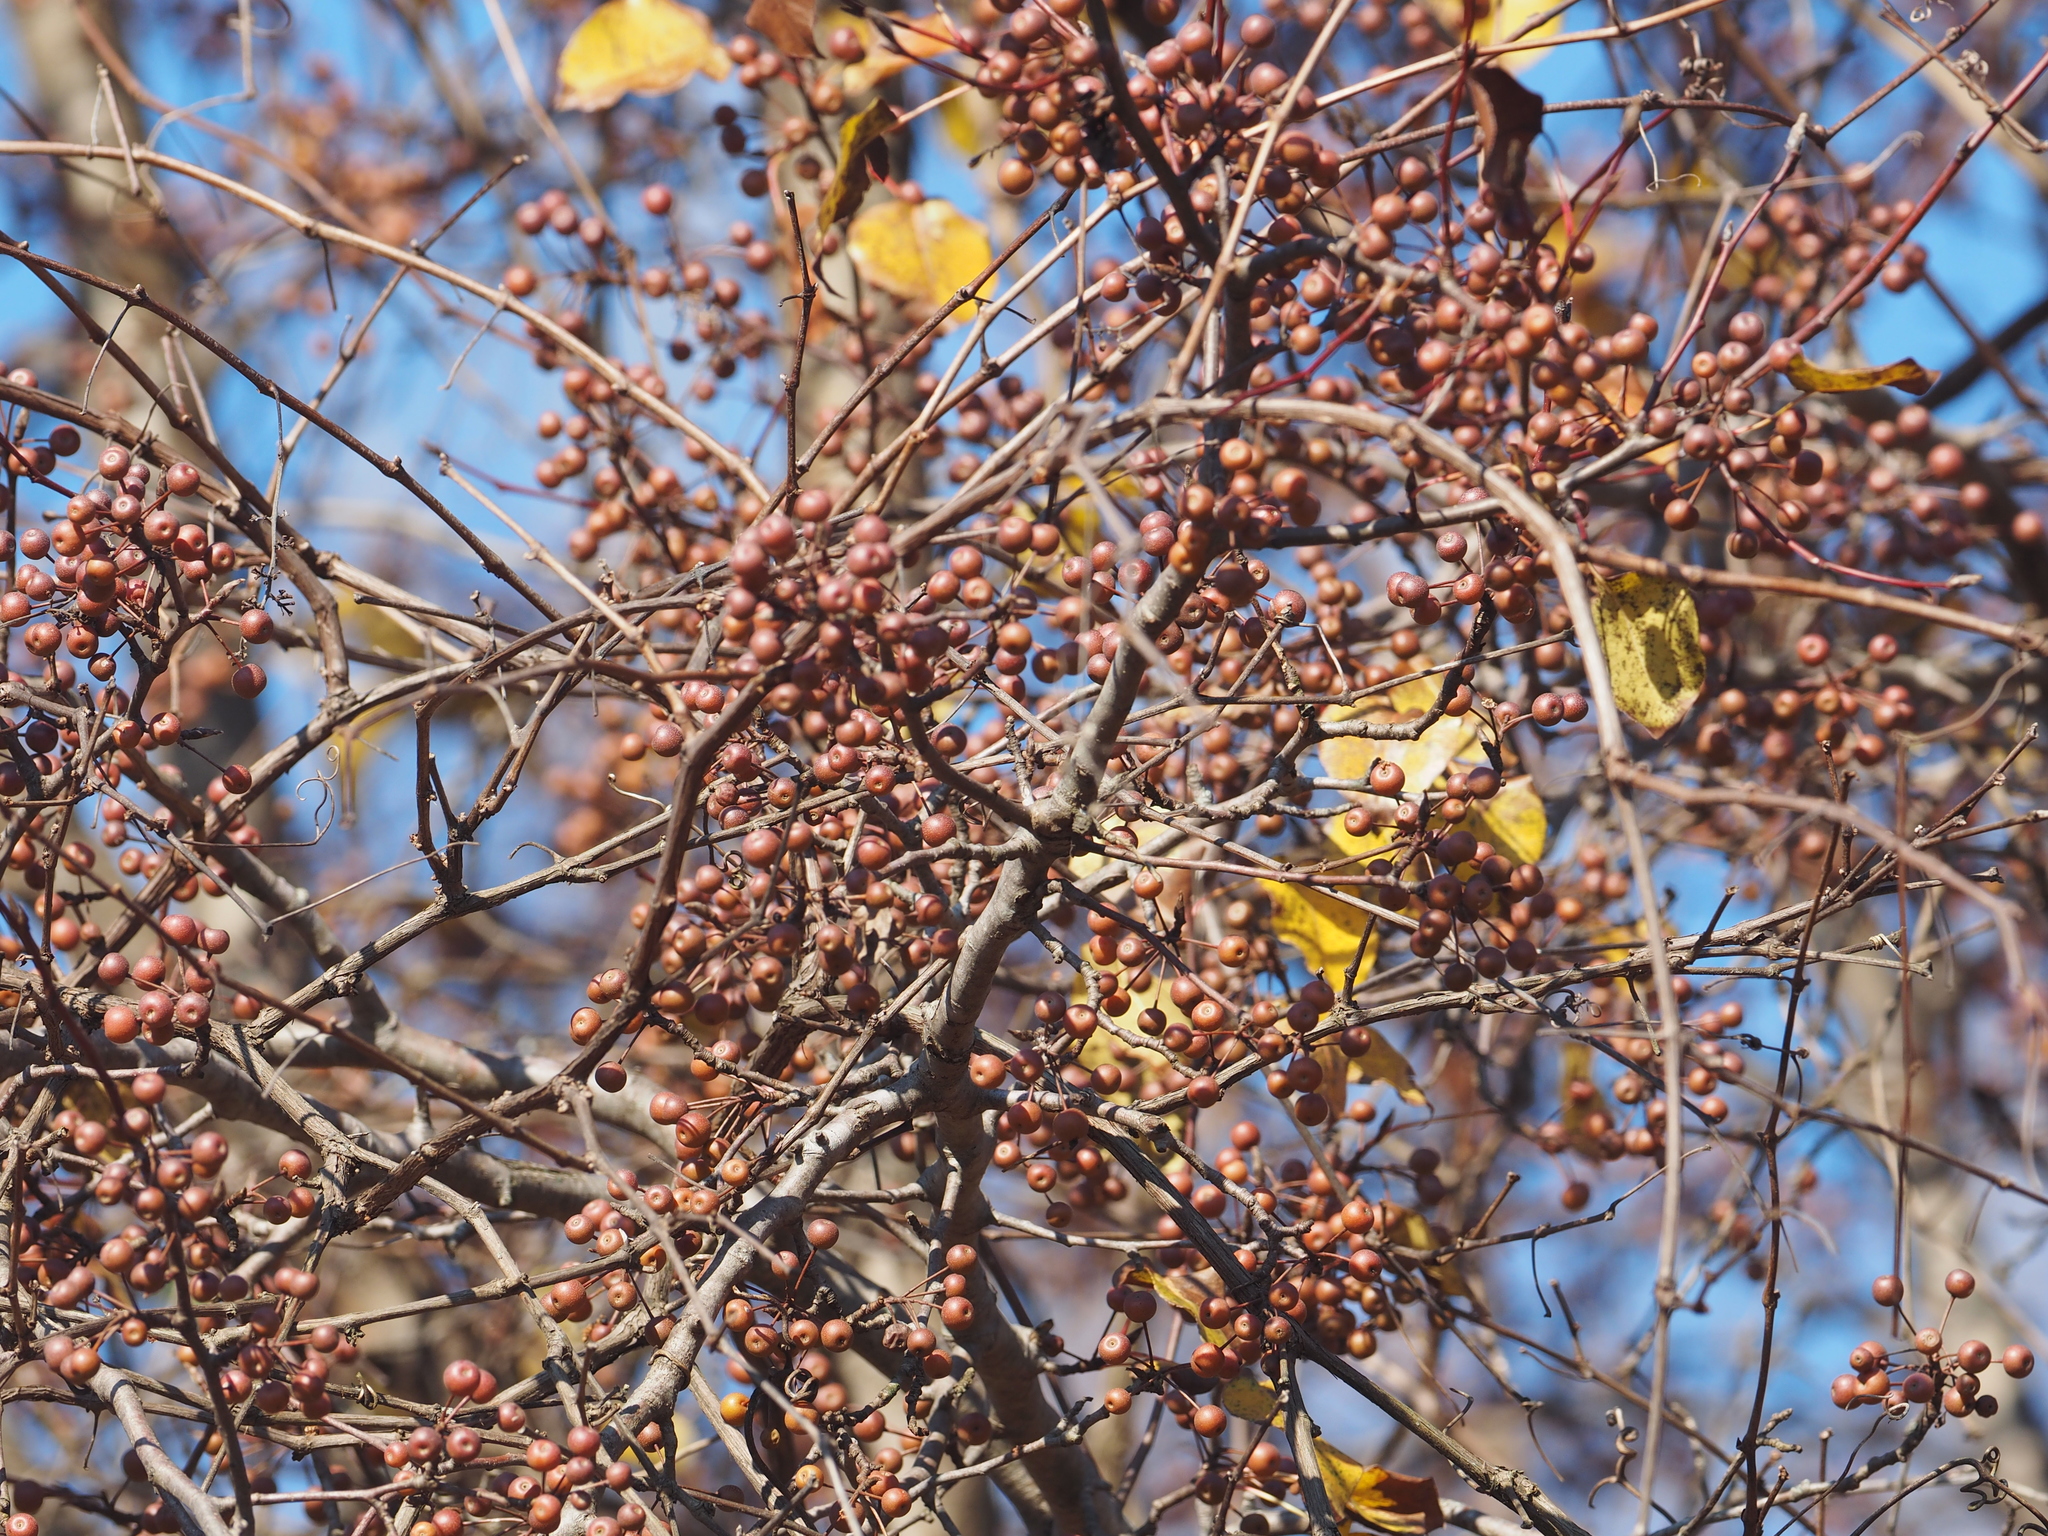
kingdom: Plantae
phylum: Tracheophyta
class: Magnoliopsida
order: Rosales
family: Rosaceae
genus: Pyrus
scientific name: Pyrus calleryana
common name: Callery pear
